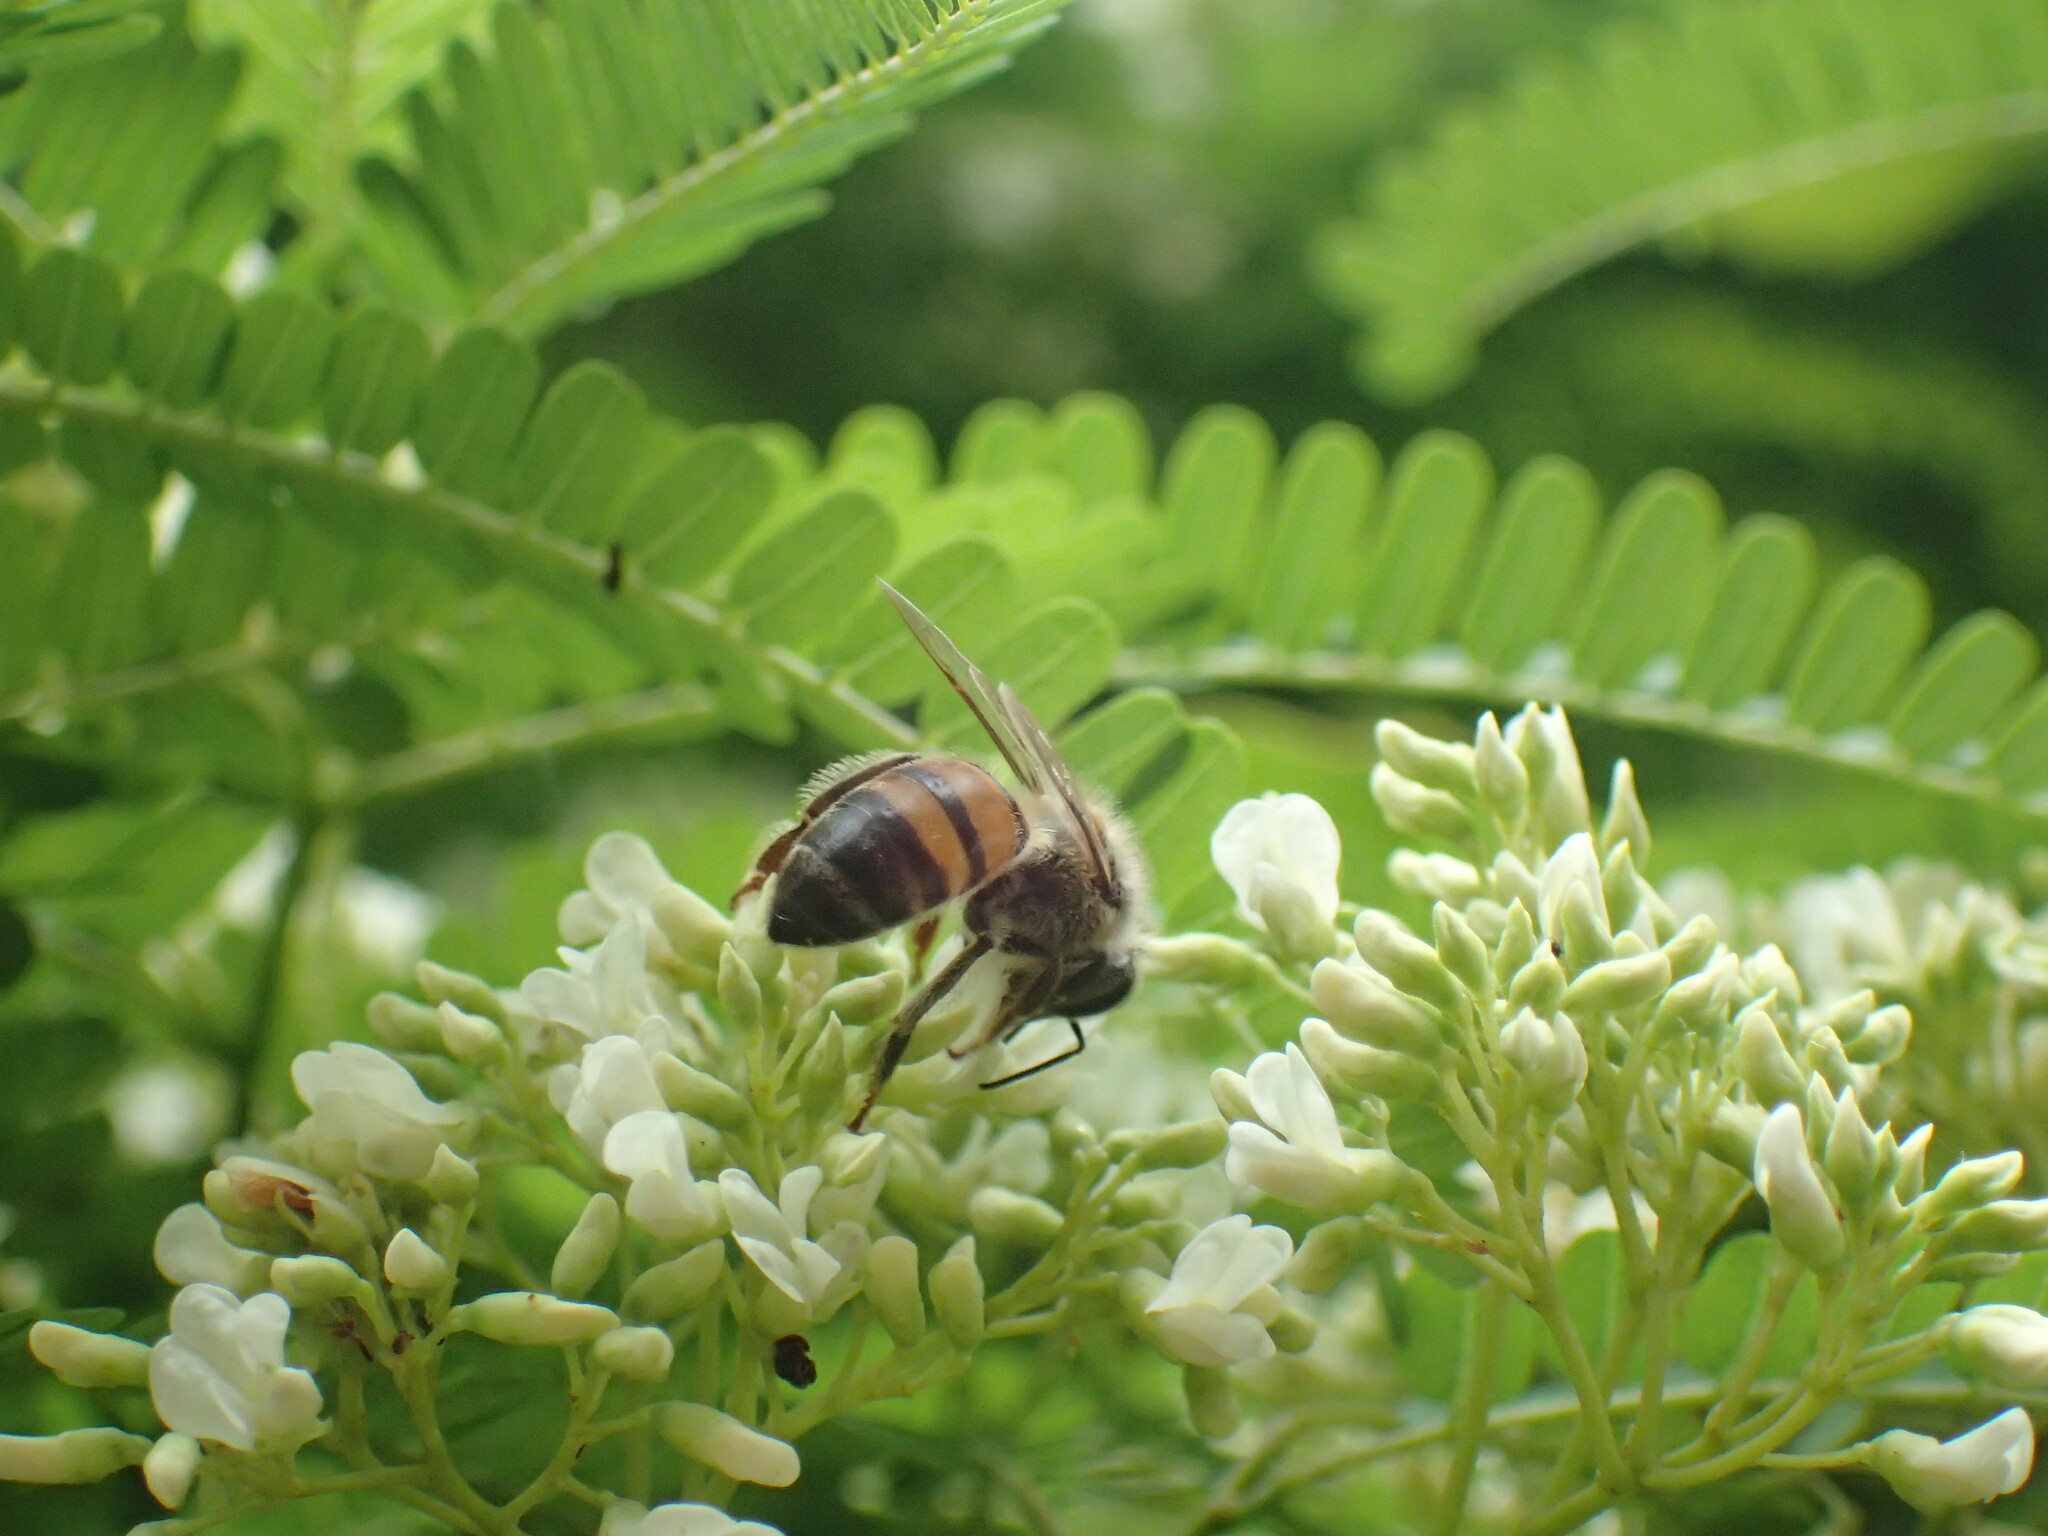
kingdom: Animalia
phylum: Arthropoda
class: Insecta
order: Hymenoptera
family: Apidae
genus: Apis
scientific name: Apis mellifera
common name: Honey bee
